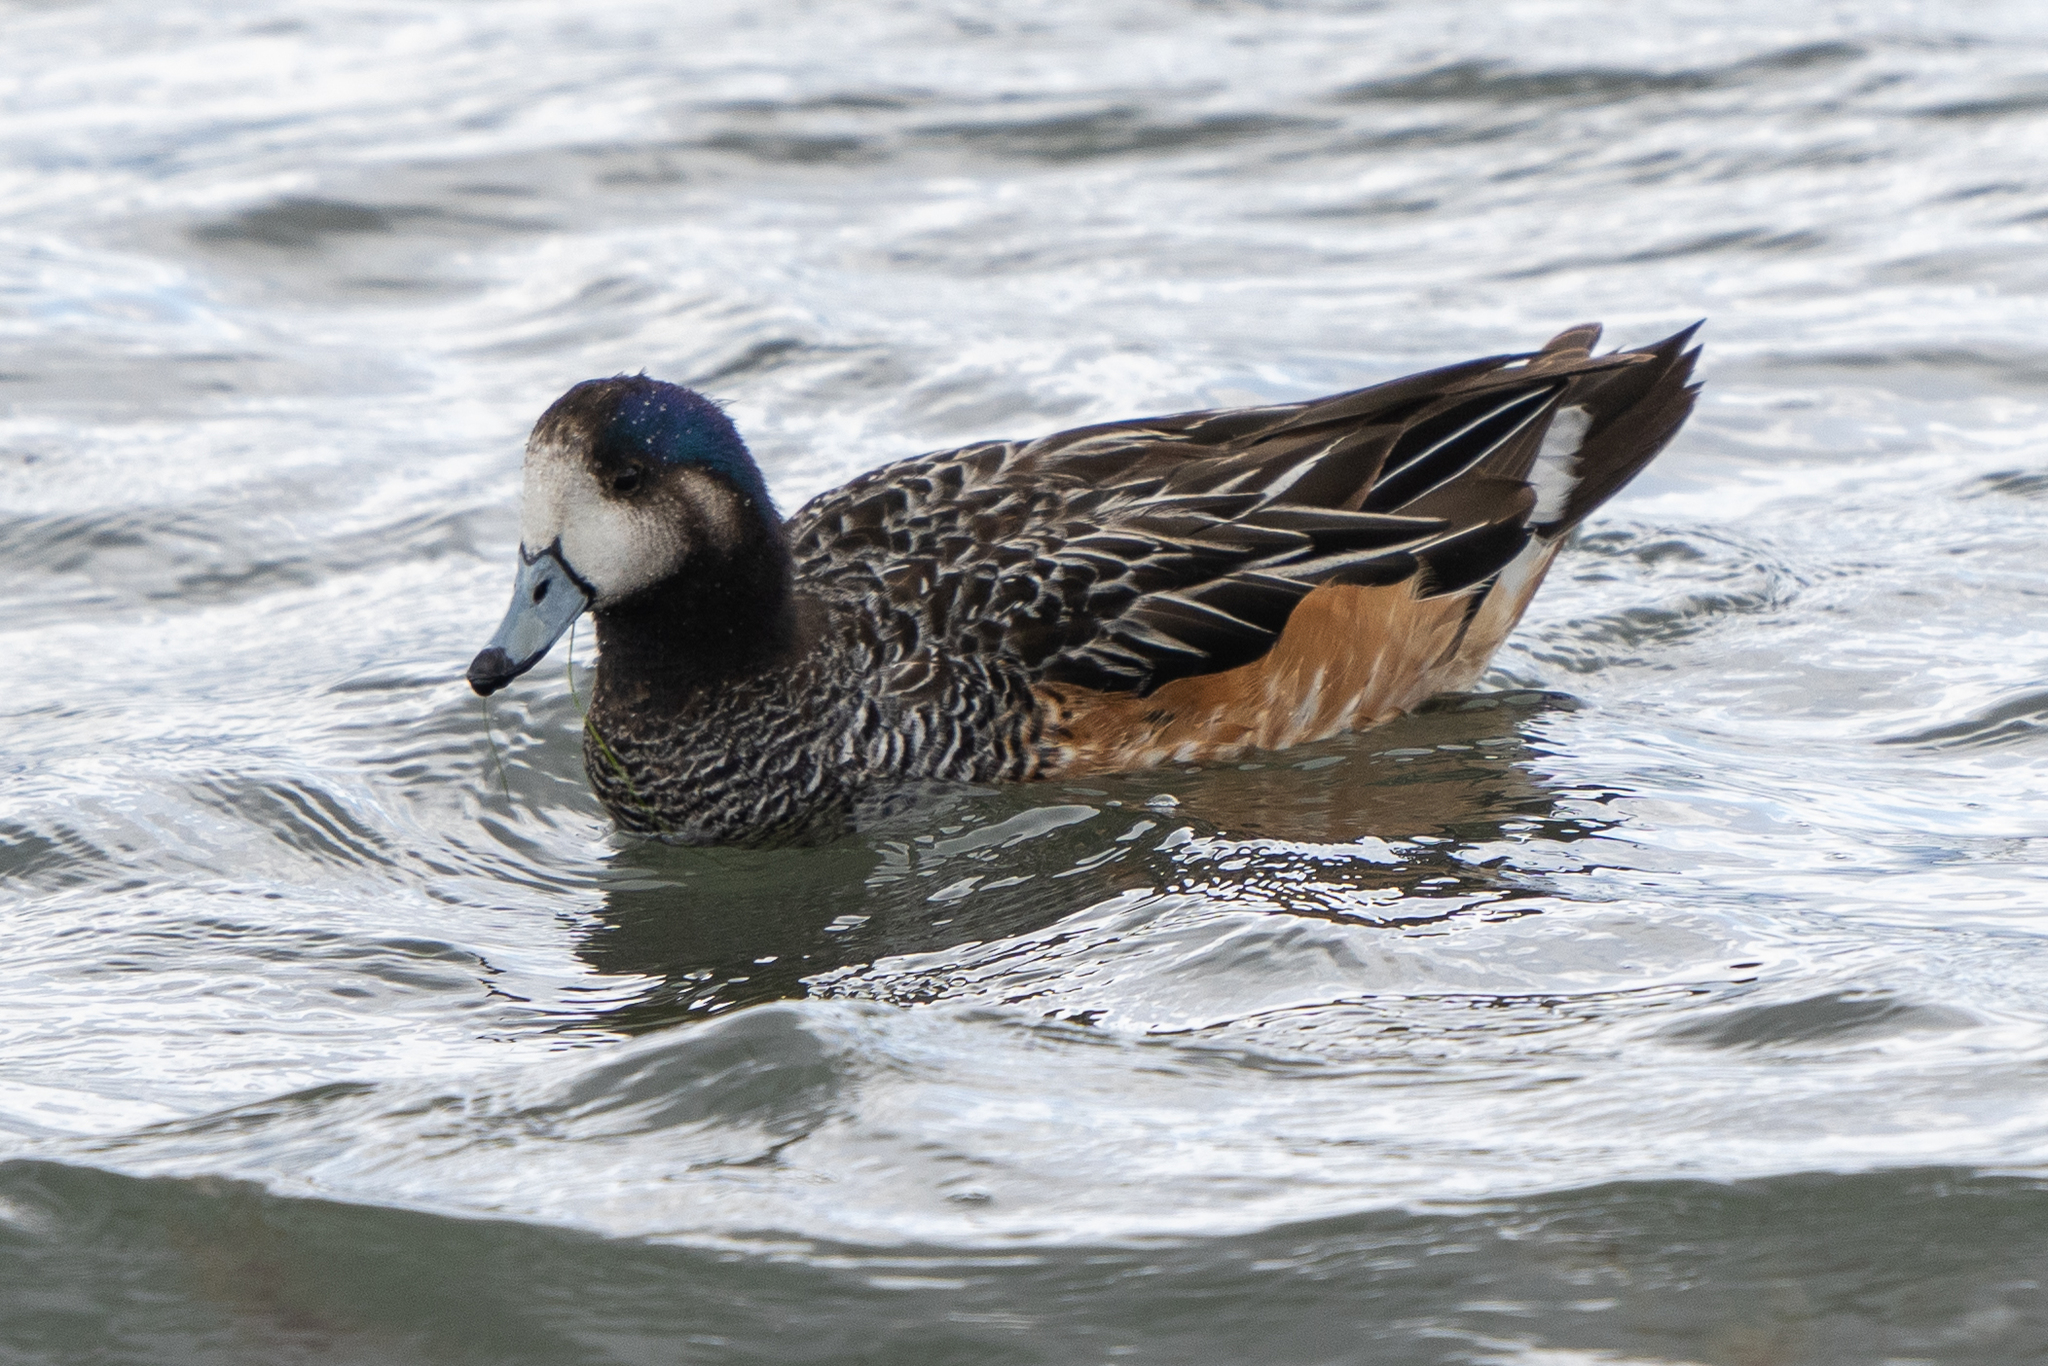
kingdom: Animalia
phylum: Chordata
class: Aves
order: Anseriformes
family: Anatidae
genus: Mareca
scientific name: Mareca sibilatrix
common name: Chiloe wigeon
